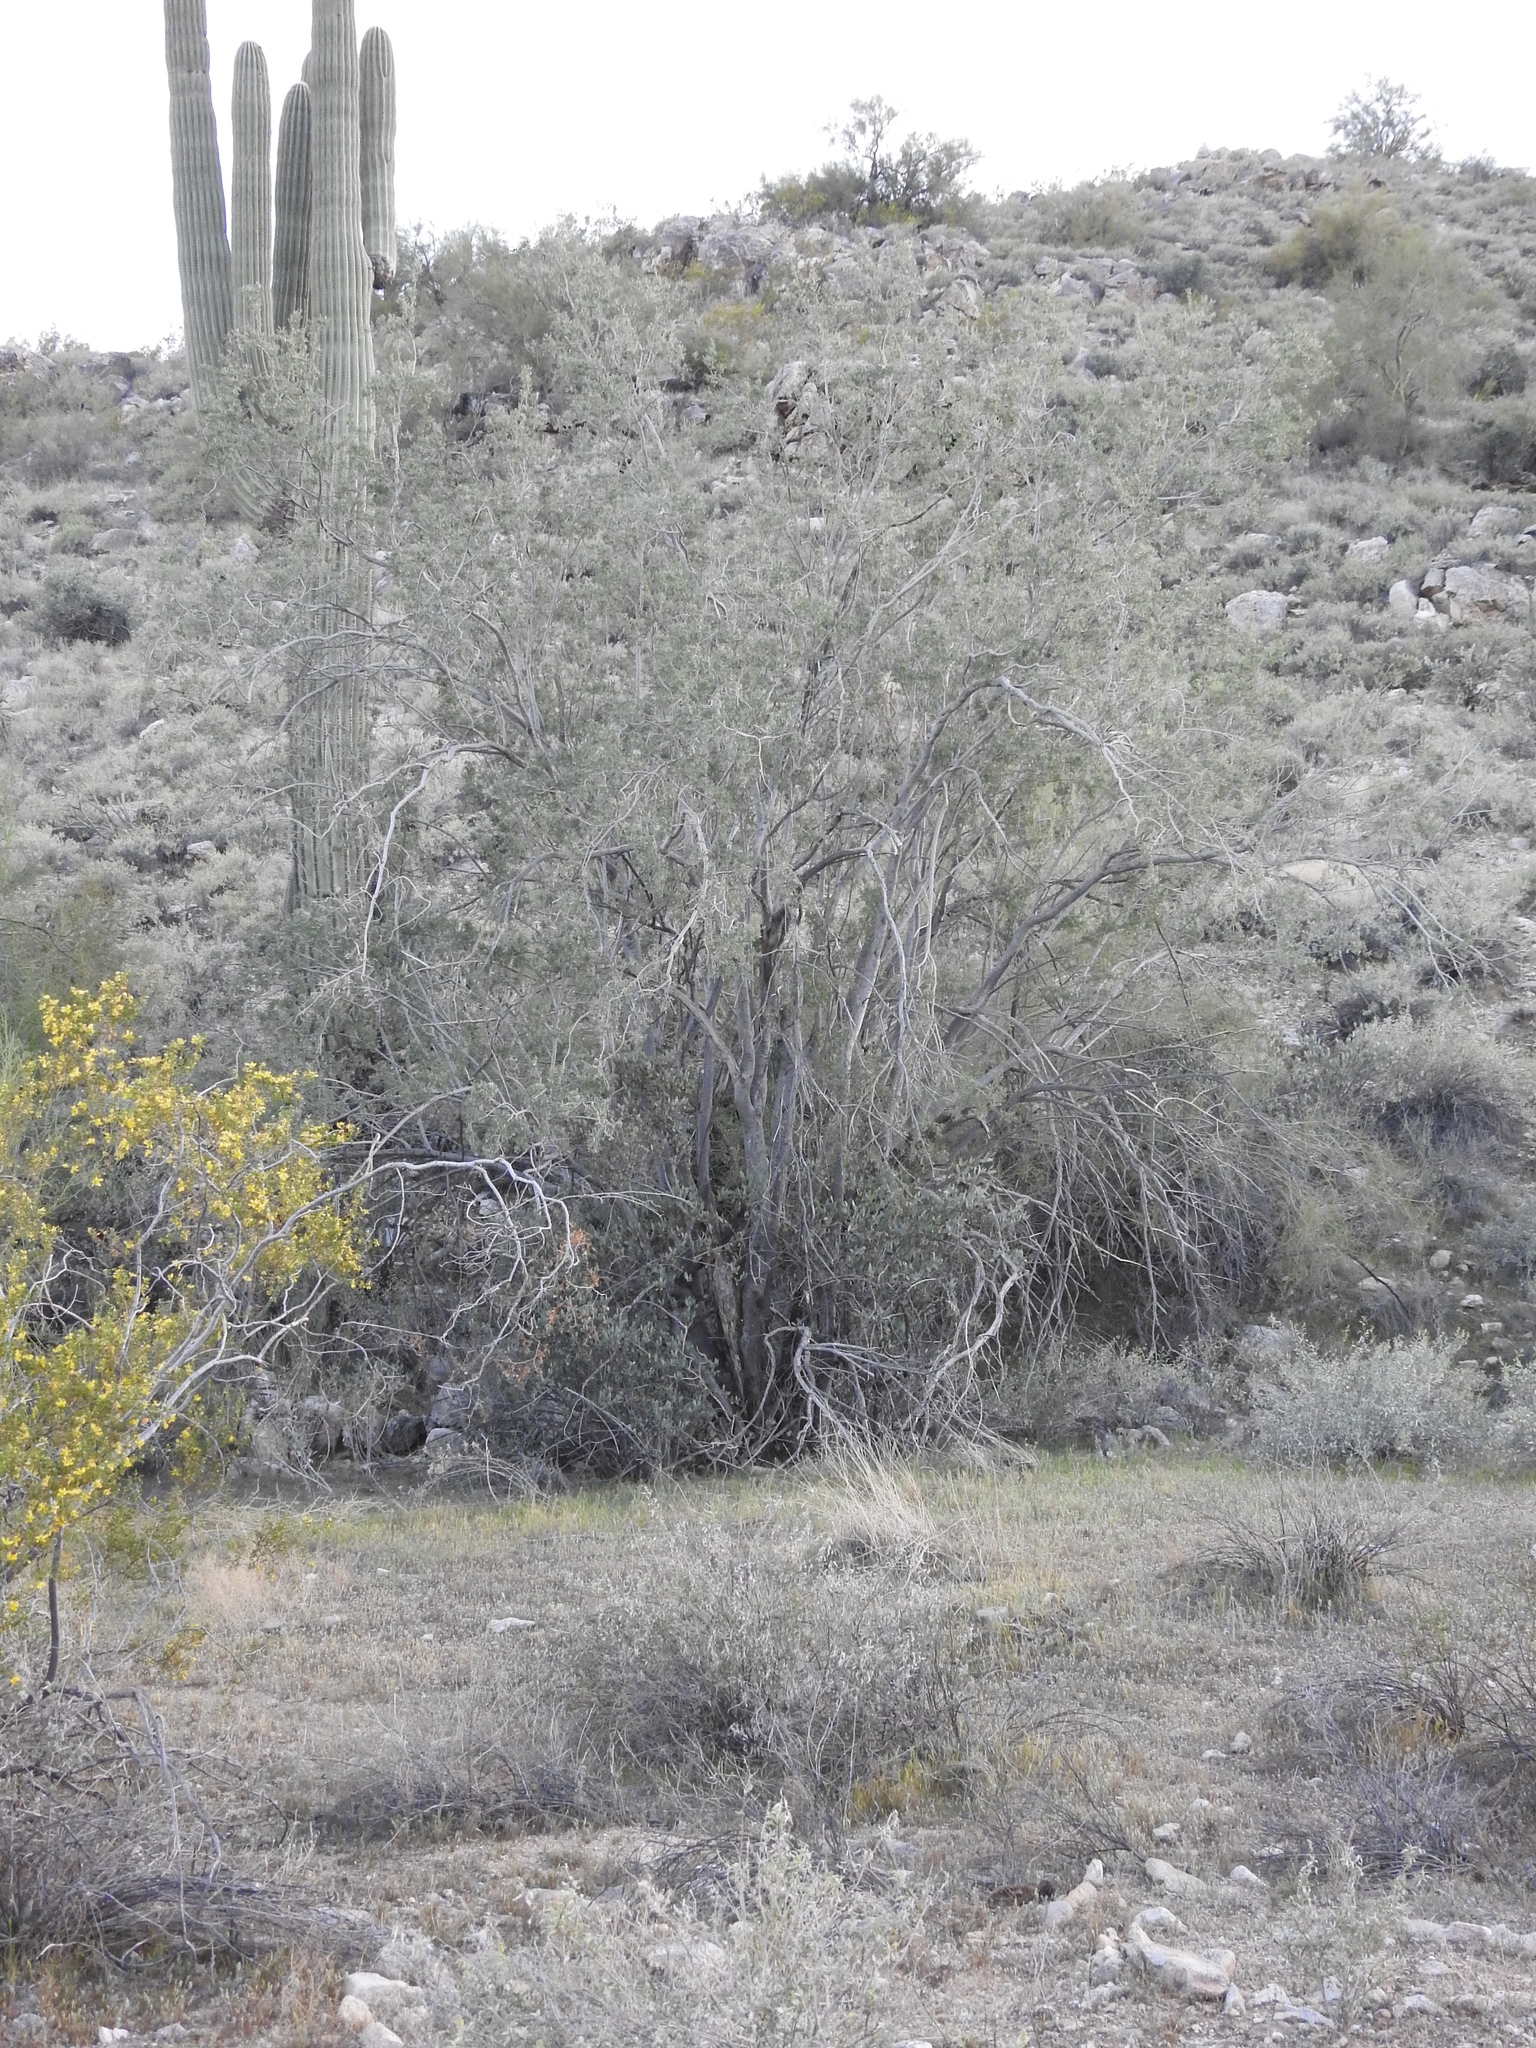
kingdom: Plantae
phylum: Tracheophyta
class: Magnoliopsida
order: Fabales
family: Fabaceae
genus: Olneya
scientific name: Olneya tesota
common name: Desert ironwood
